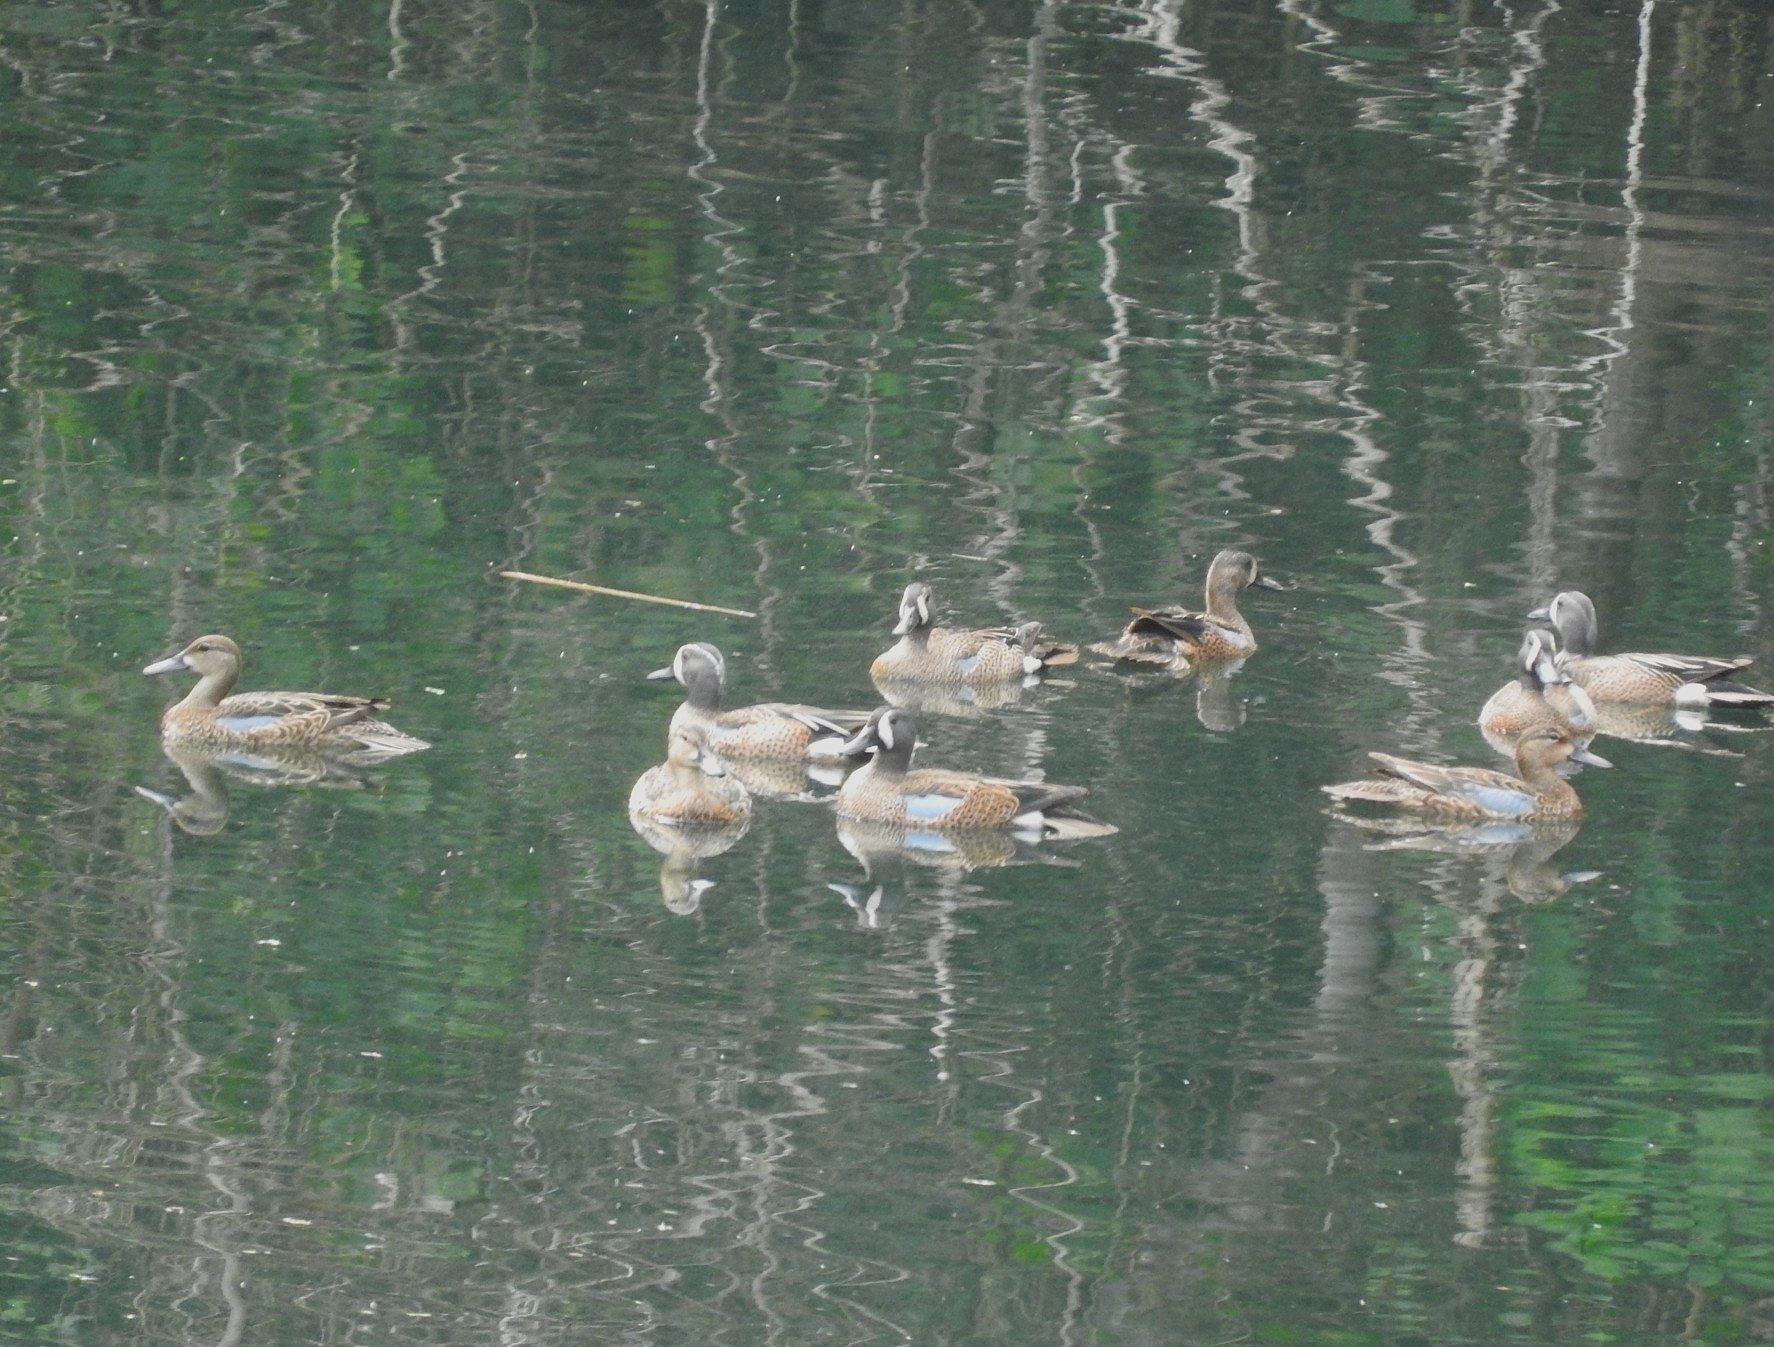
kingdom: Animalia
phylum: Chordata
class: Aves
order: Anseriformes
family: Anatidae
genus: Spatula
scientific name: Spatula discors
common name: Blue-winged teal
